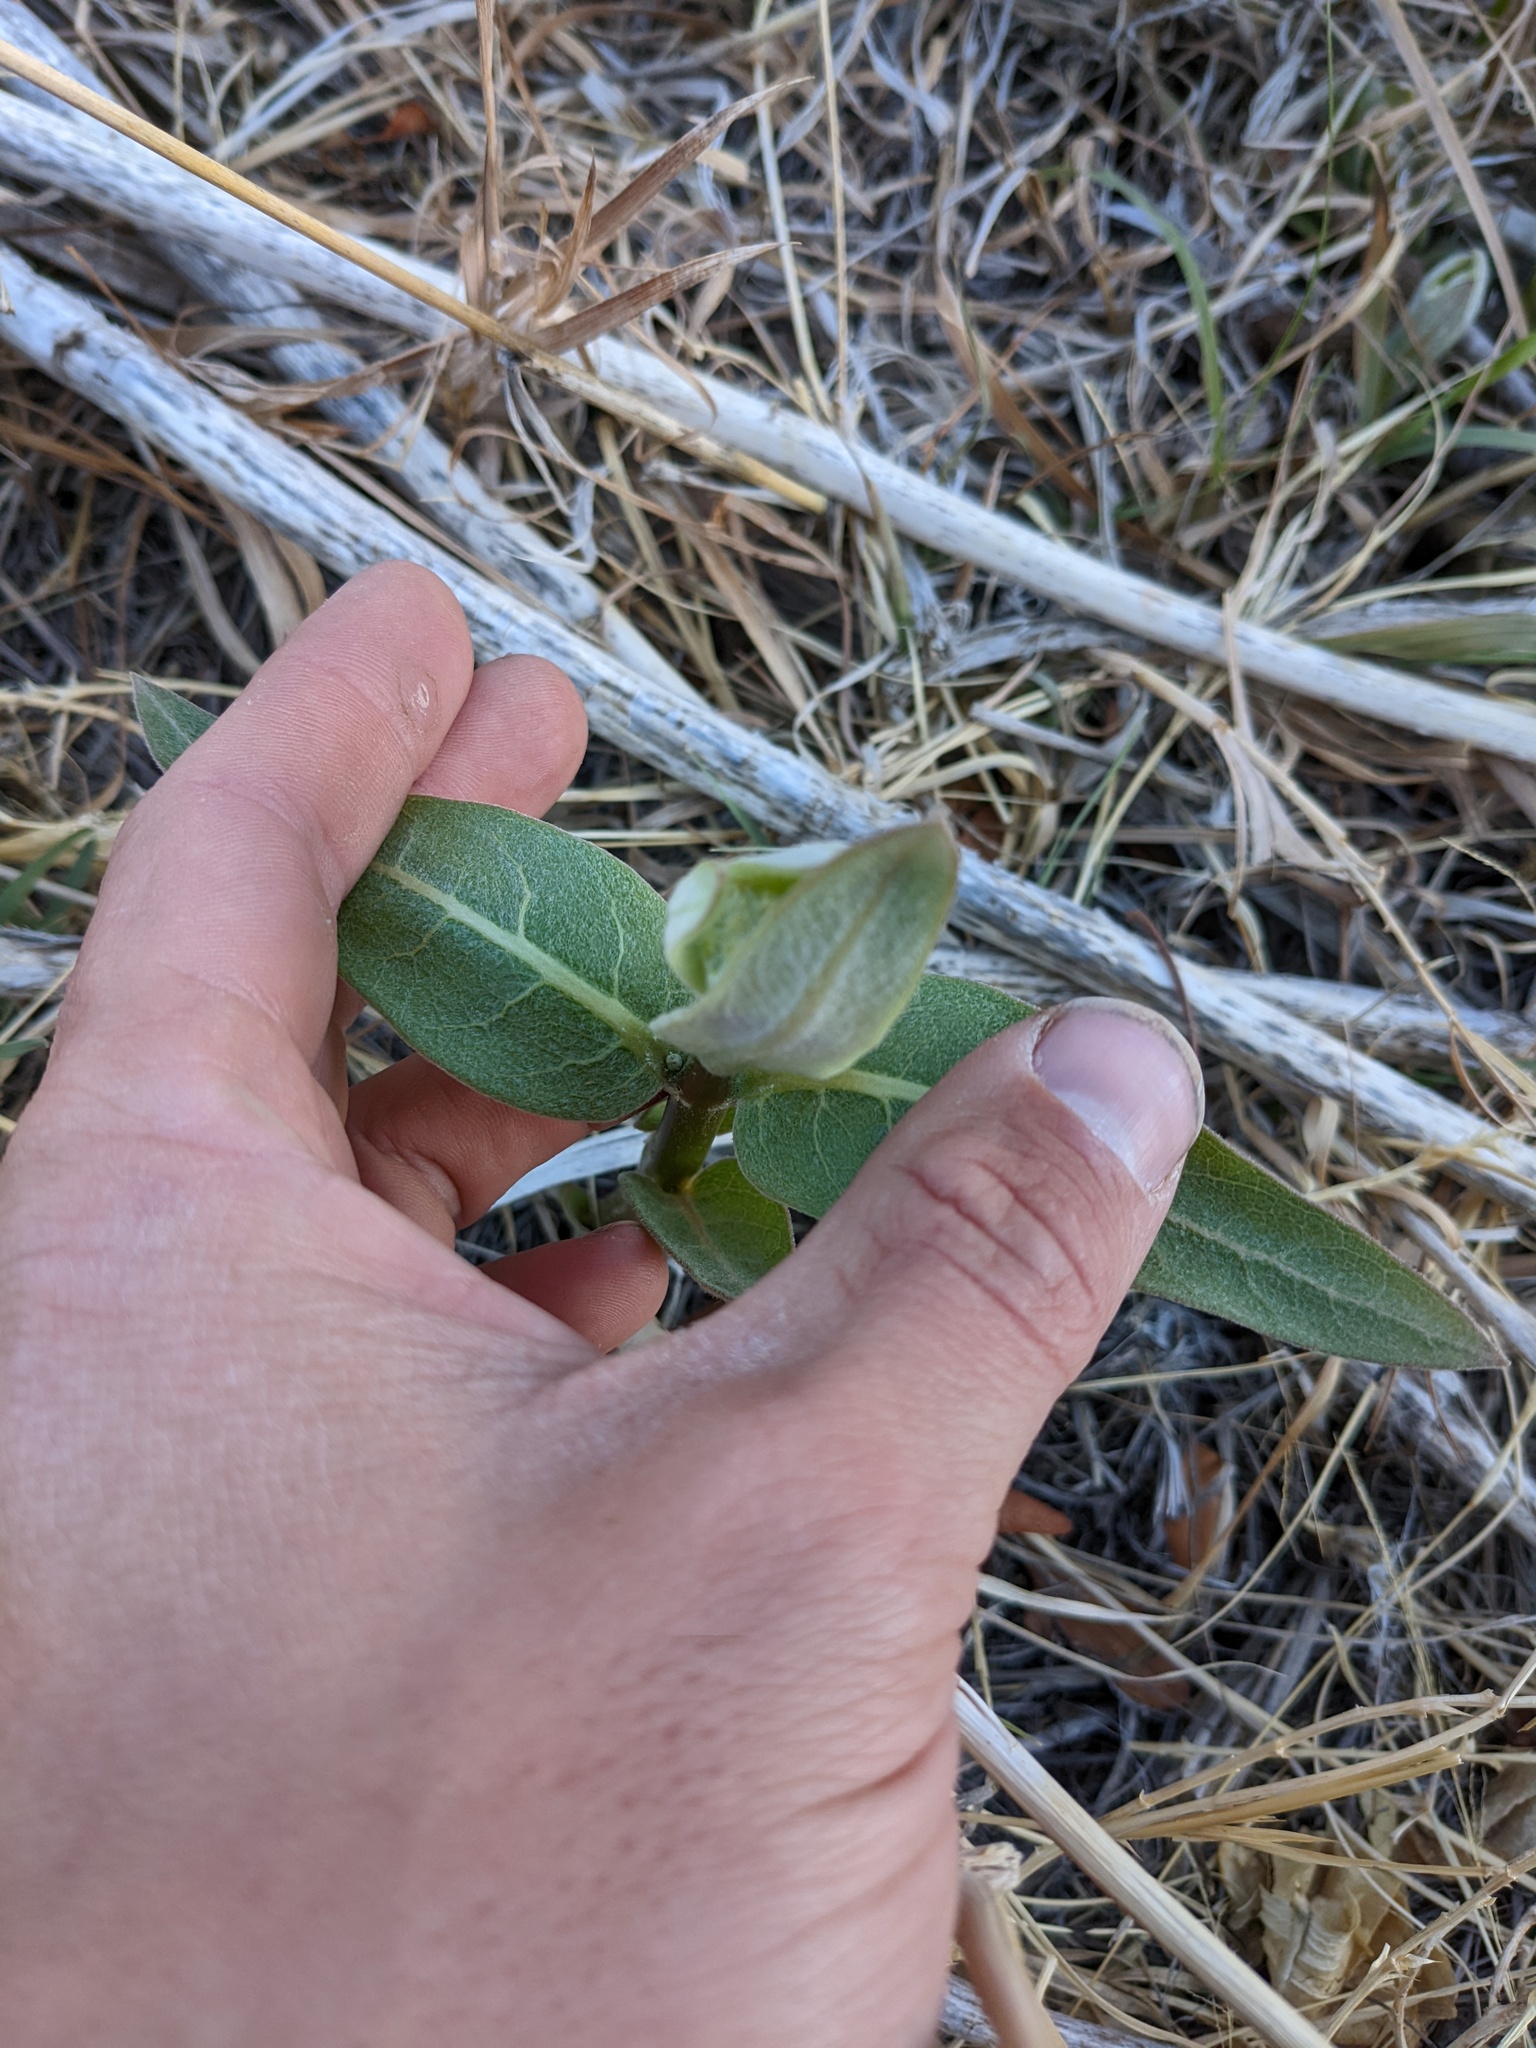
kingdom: Plantae
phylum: Tracheophyta
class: Magnoliopsida
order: Gentianales
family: Apocynaceae
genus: Asclepias
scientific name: Asclepias speciosa
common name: Showy milkweed
